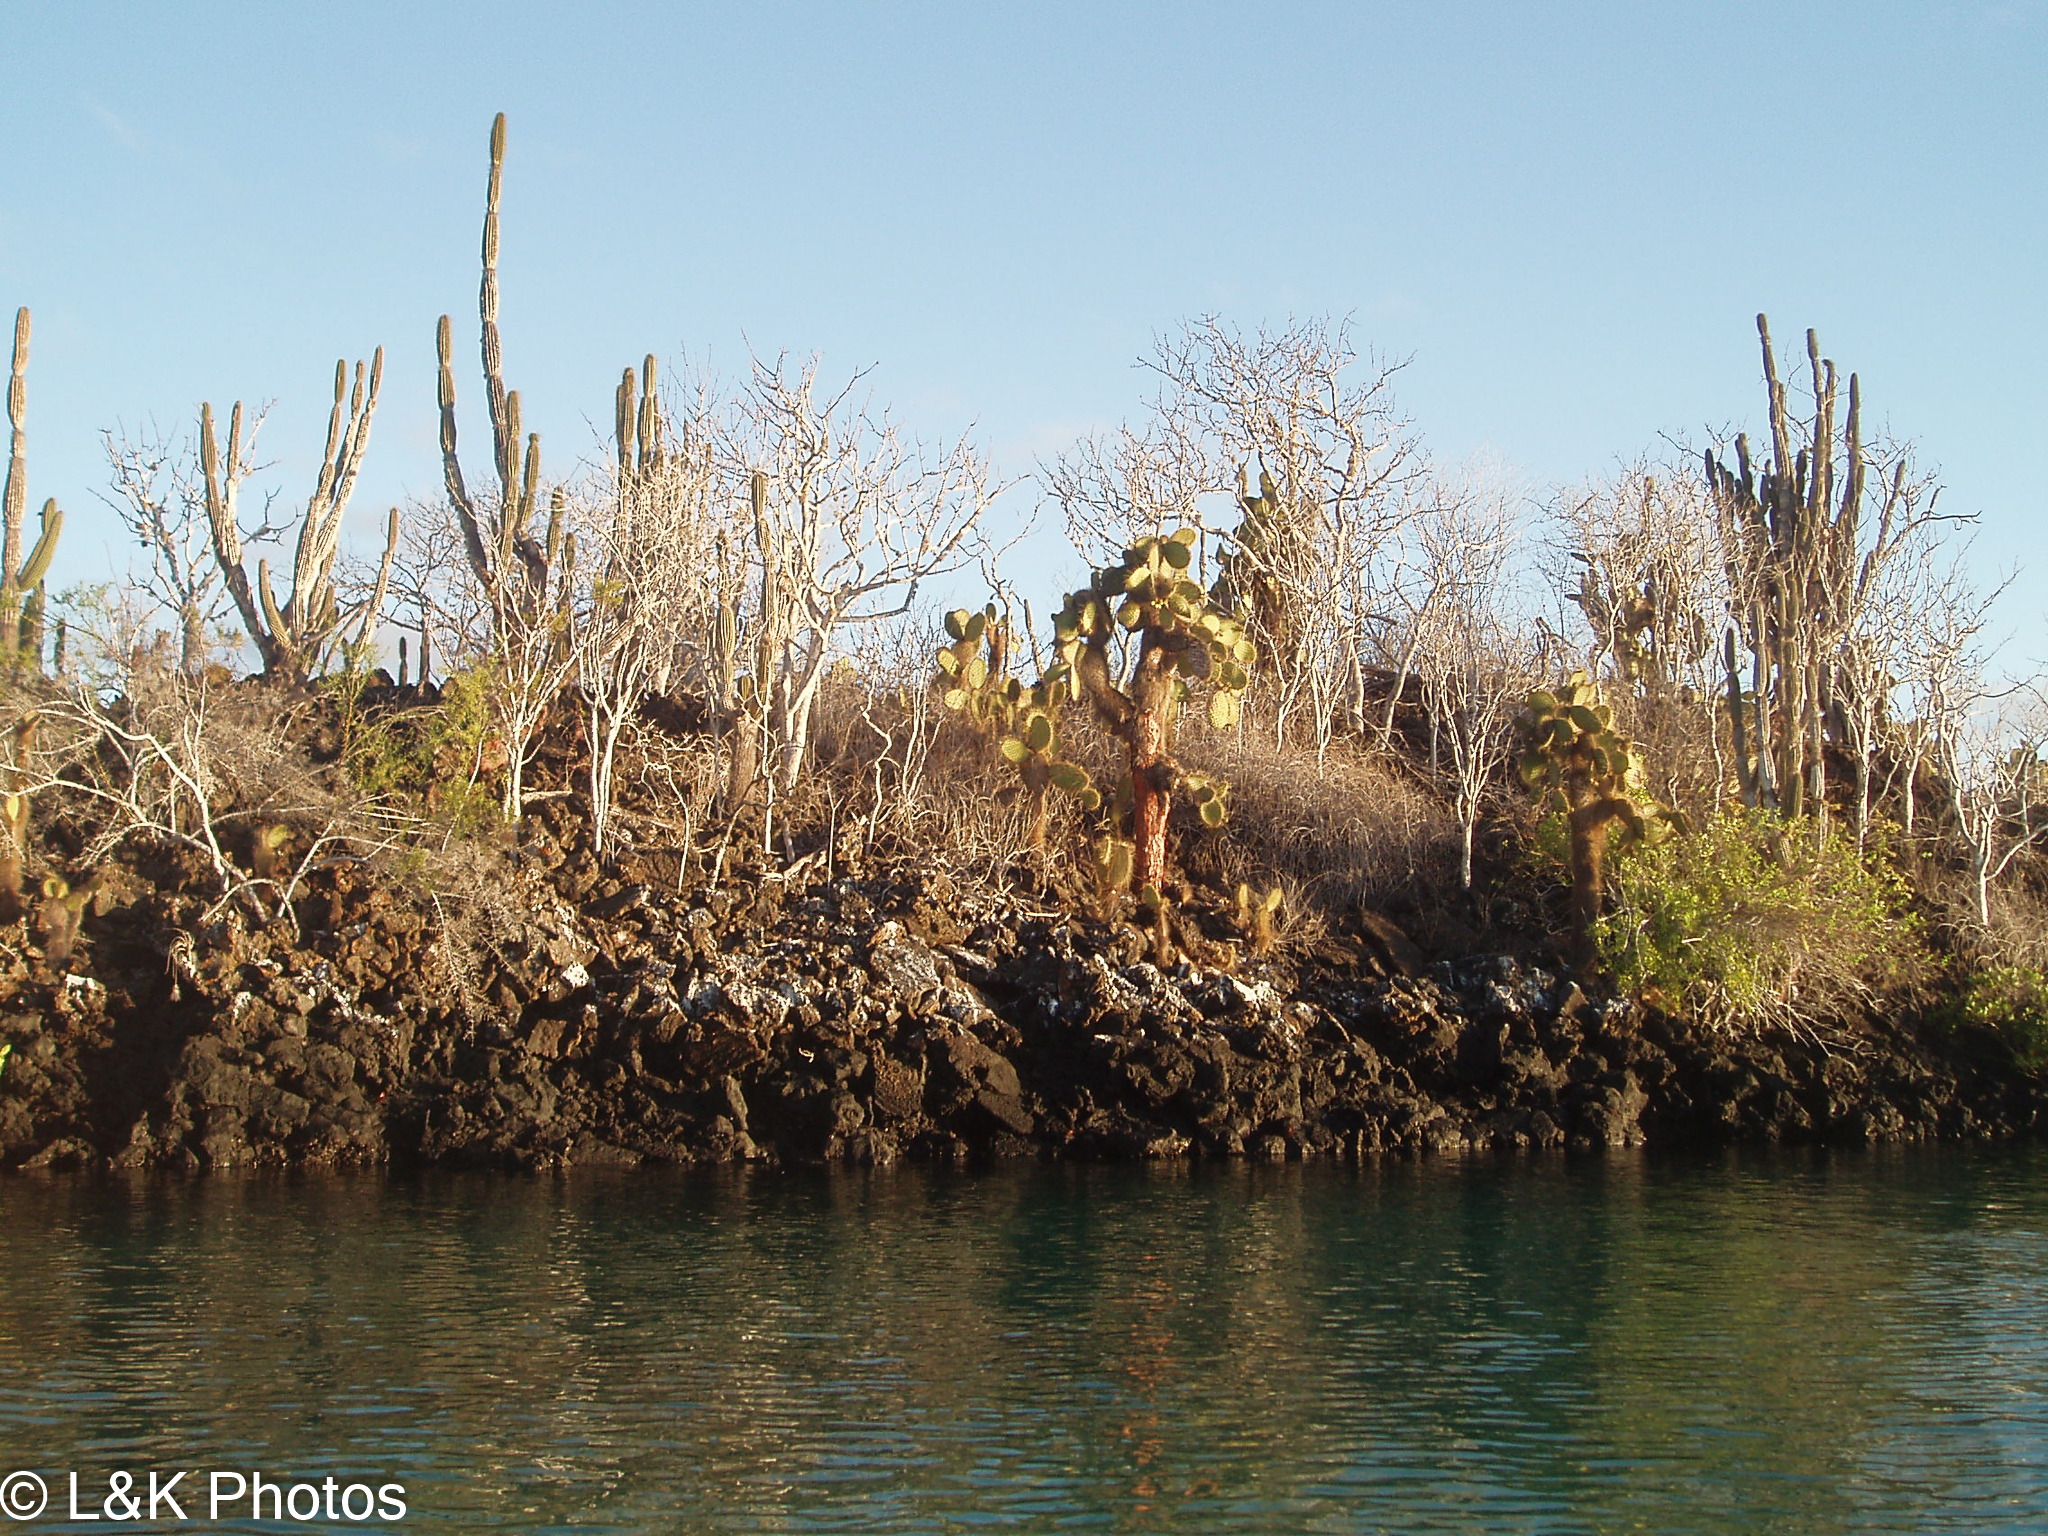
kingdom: Plantae
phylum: Tracheophyta
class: Magnoliopsida
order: Caryophyllales
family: Cactaceae
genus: Jasminocereus
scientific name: Jasminocereus thouarsii
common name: Candelabra cactus
